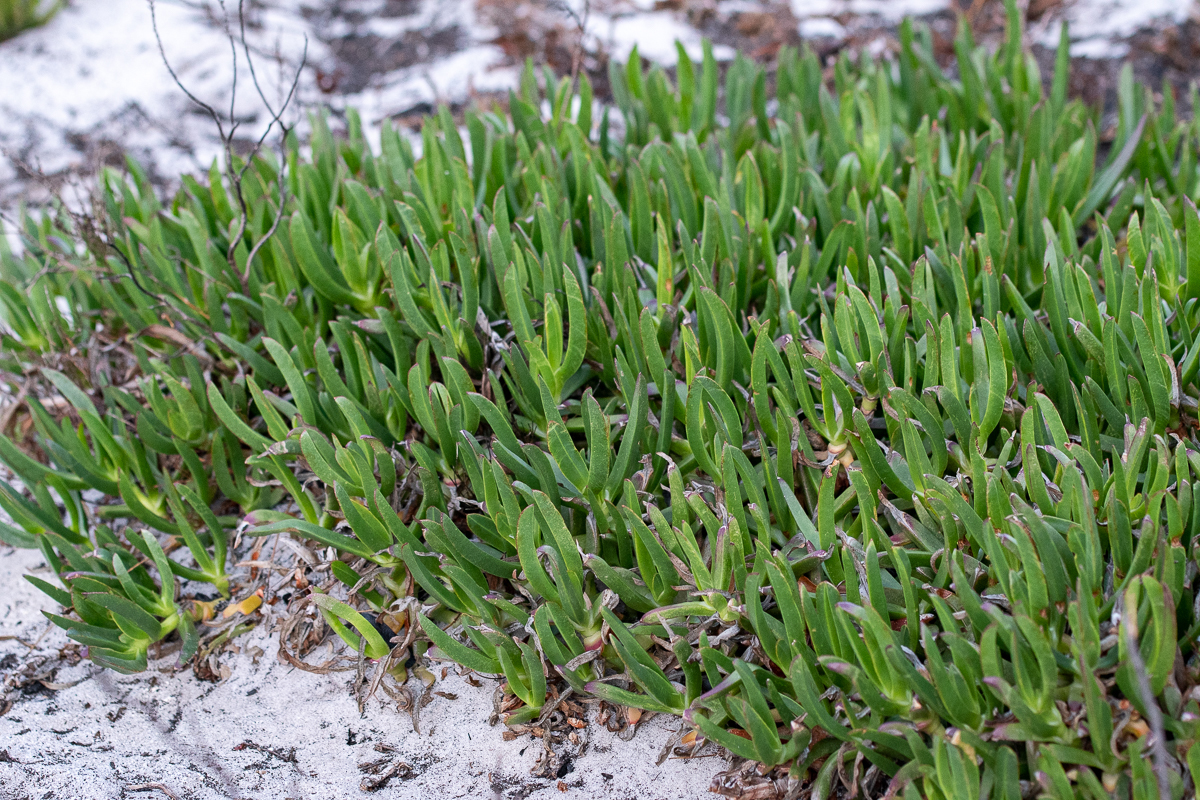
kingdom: Plantae
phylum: Tracheophyta
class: Magnoliopsida
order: Caryophyllales
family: Aizoaceae
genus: Carpobrotus
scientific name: Carpobrotus edulis
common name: Hottentot-fig
